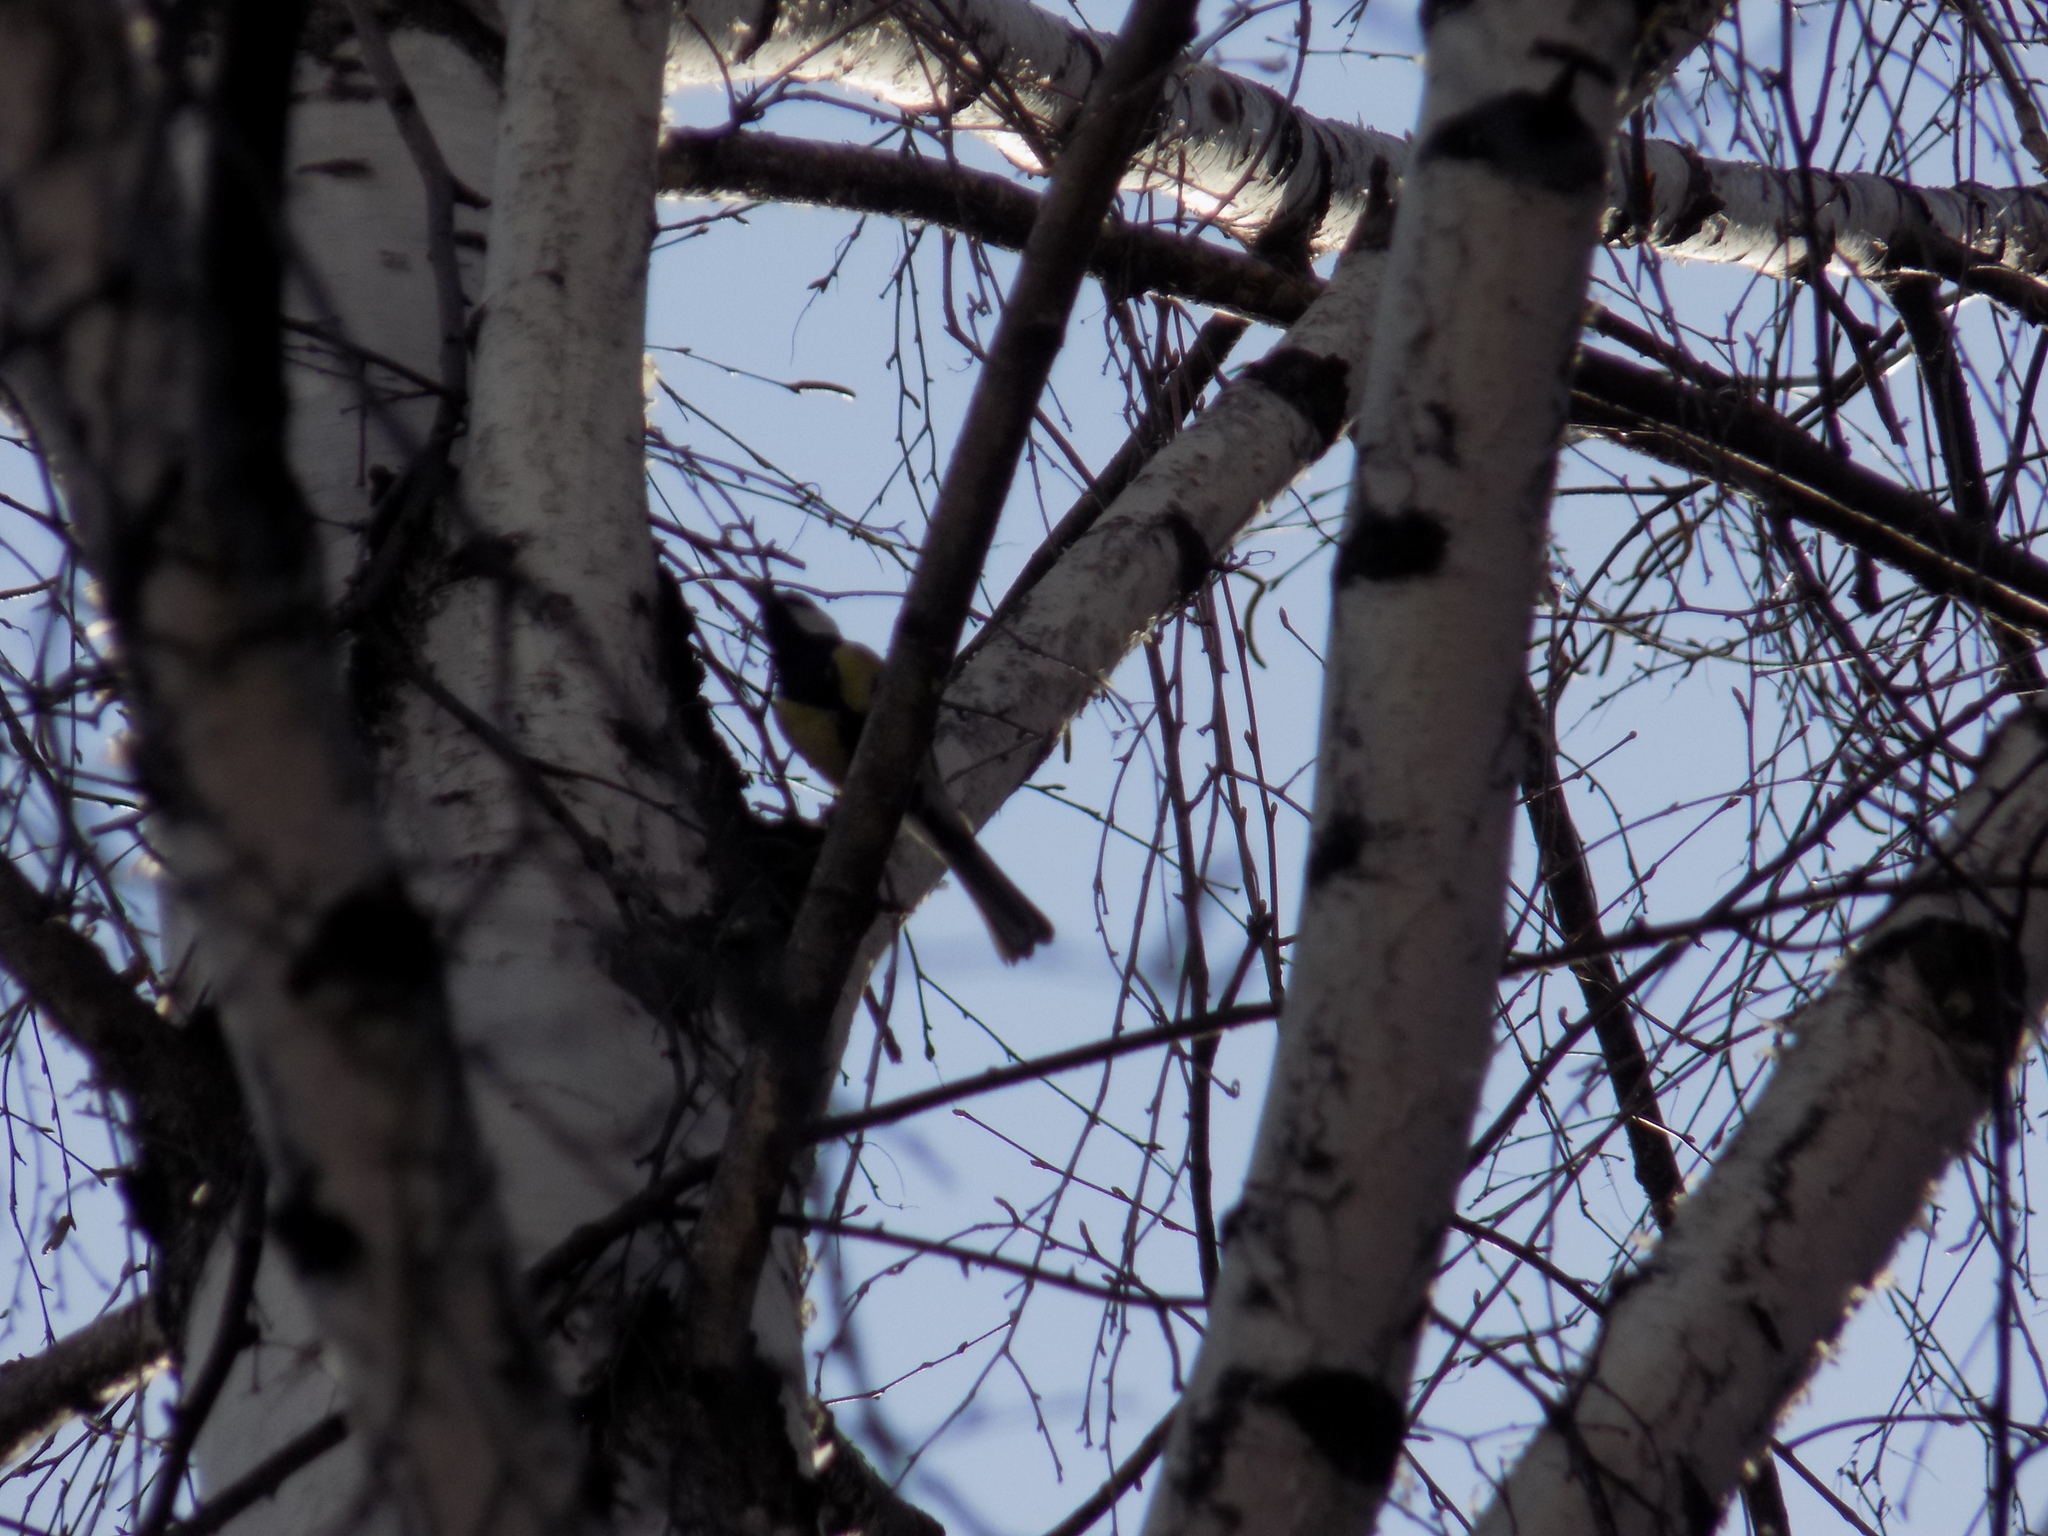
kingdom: Animalia
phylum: Chordata
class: Aves
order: Passeriformes
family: Paridae
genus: Parus
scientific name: Parus major
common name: Great tit
